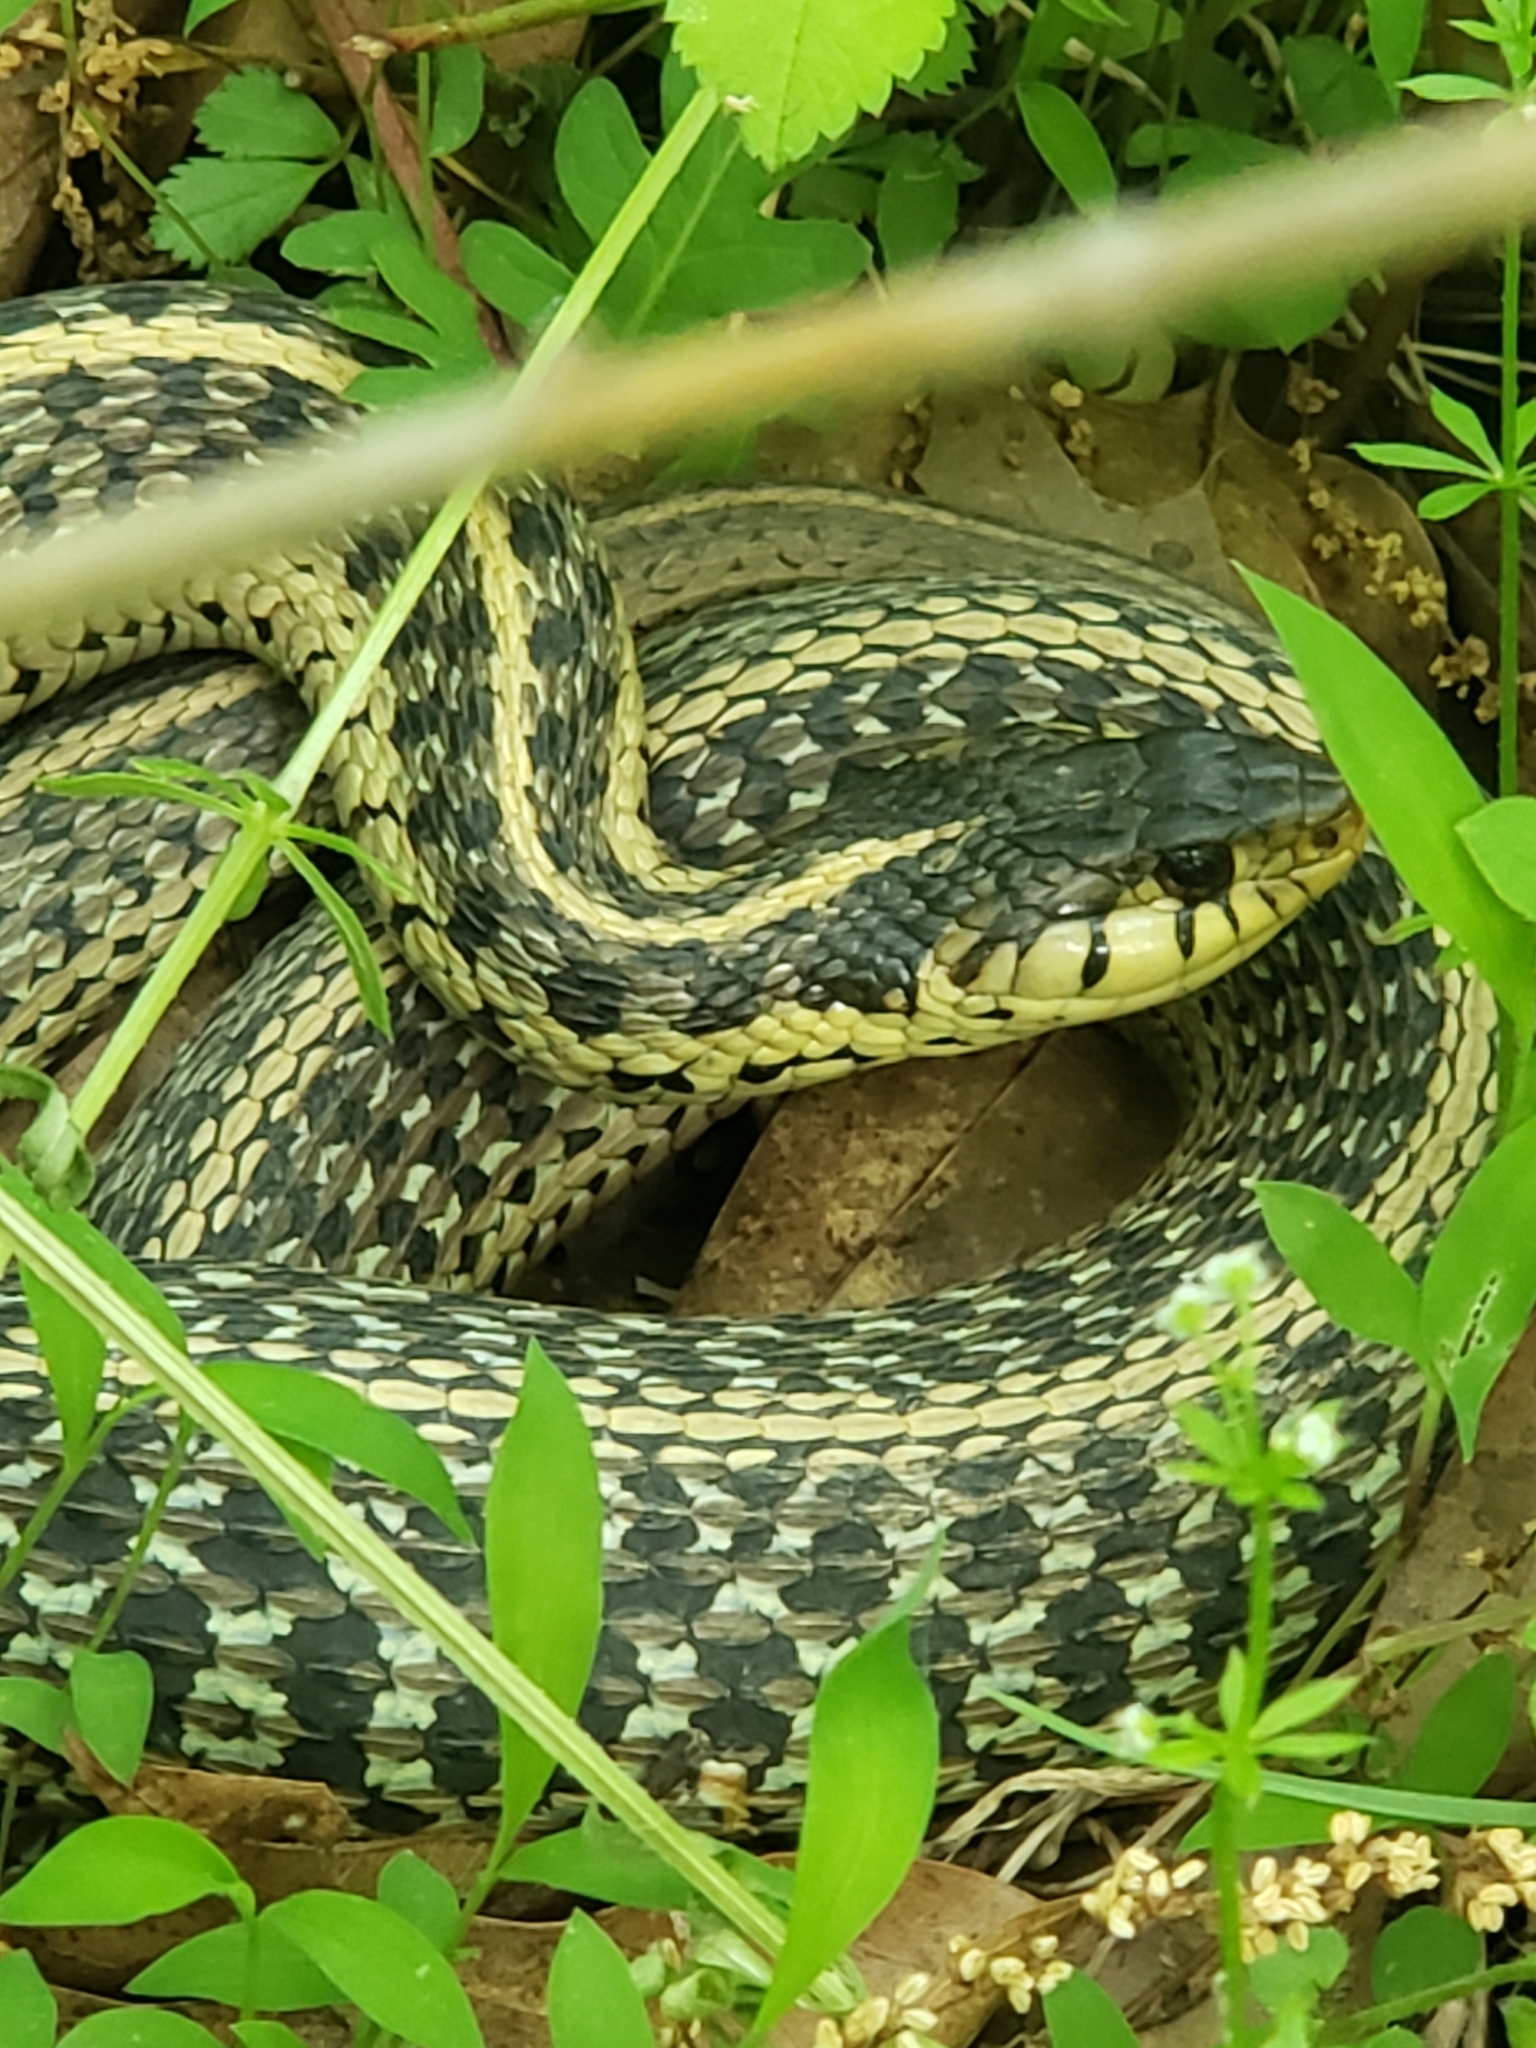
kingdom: Animalia
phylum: Chordata
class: Squamata
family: Colubridae
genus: Thamnophis
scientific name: Thamnophis sirtalis
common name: Common garter snake
